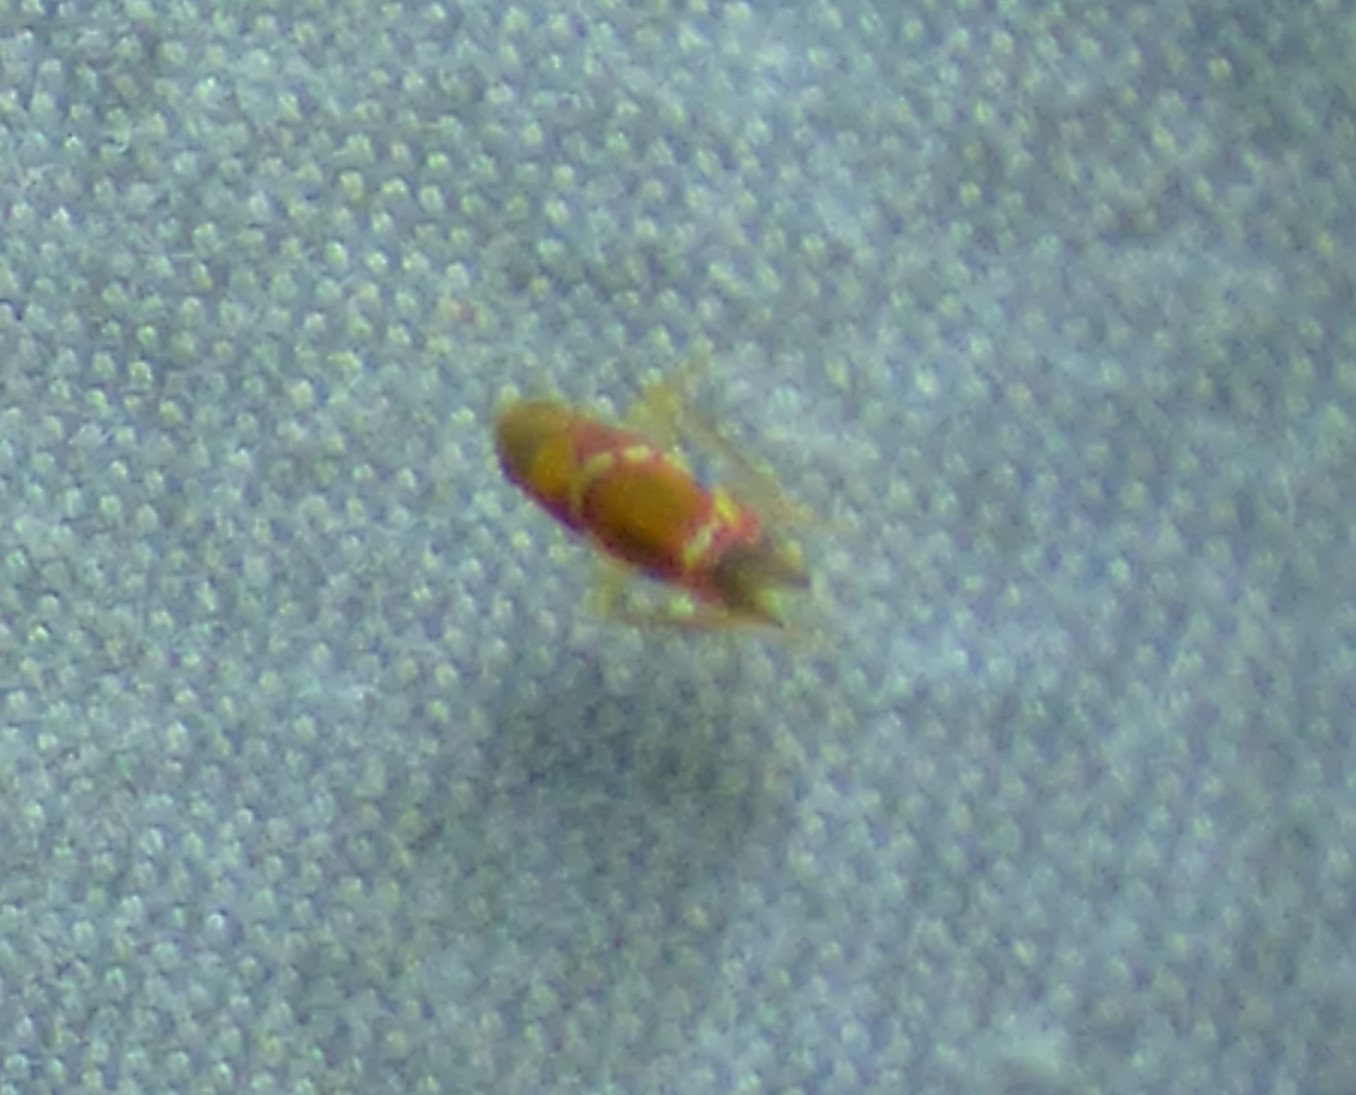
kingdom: Animalia
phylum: Arthropoda
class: Insecta
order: Hemiptera
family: Cicadellidae
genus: Erythroneura
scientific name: Erythroneura vitis
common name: Grapevine leafhopper
